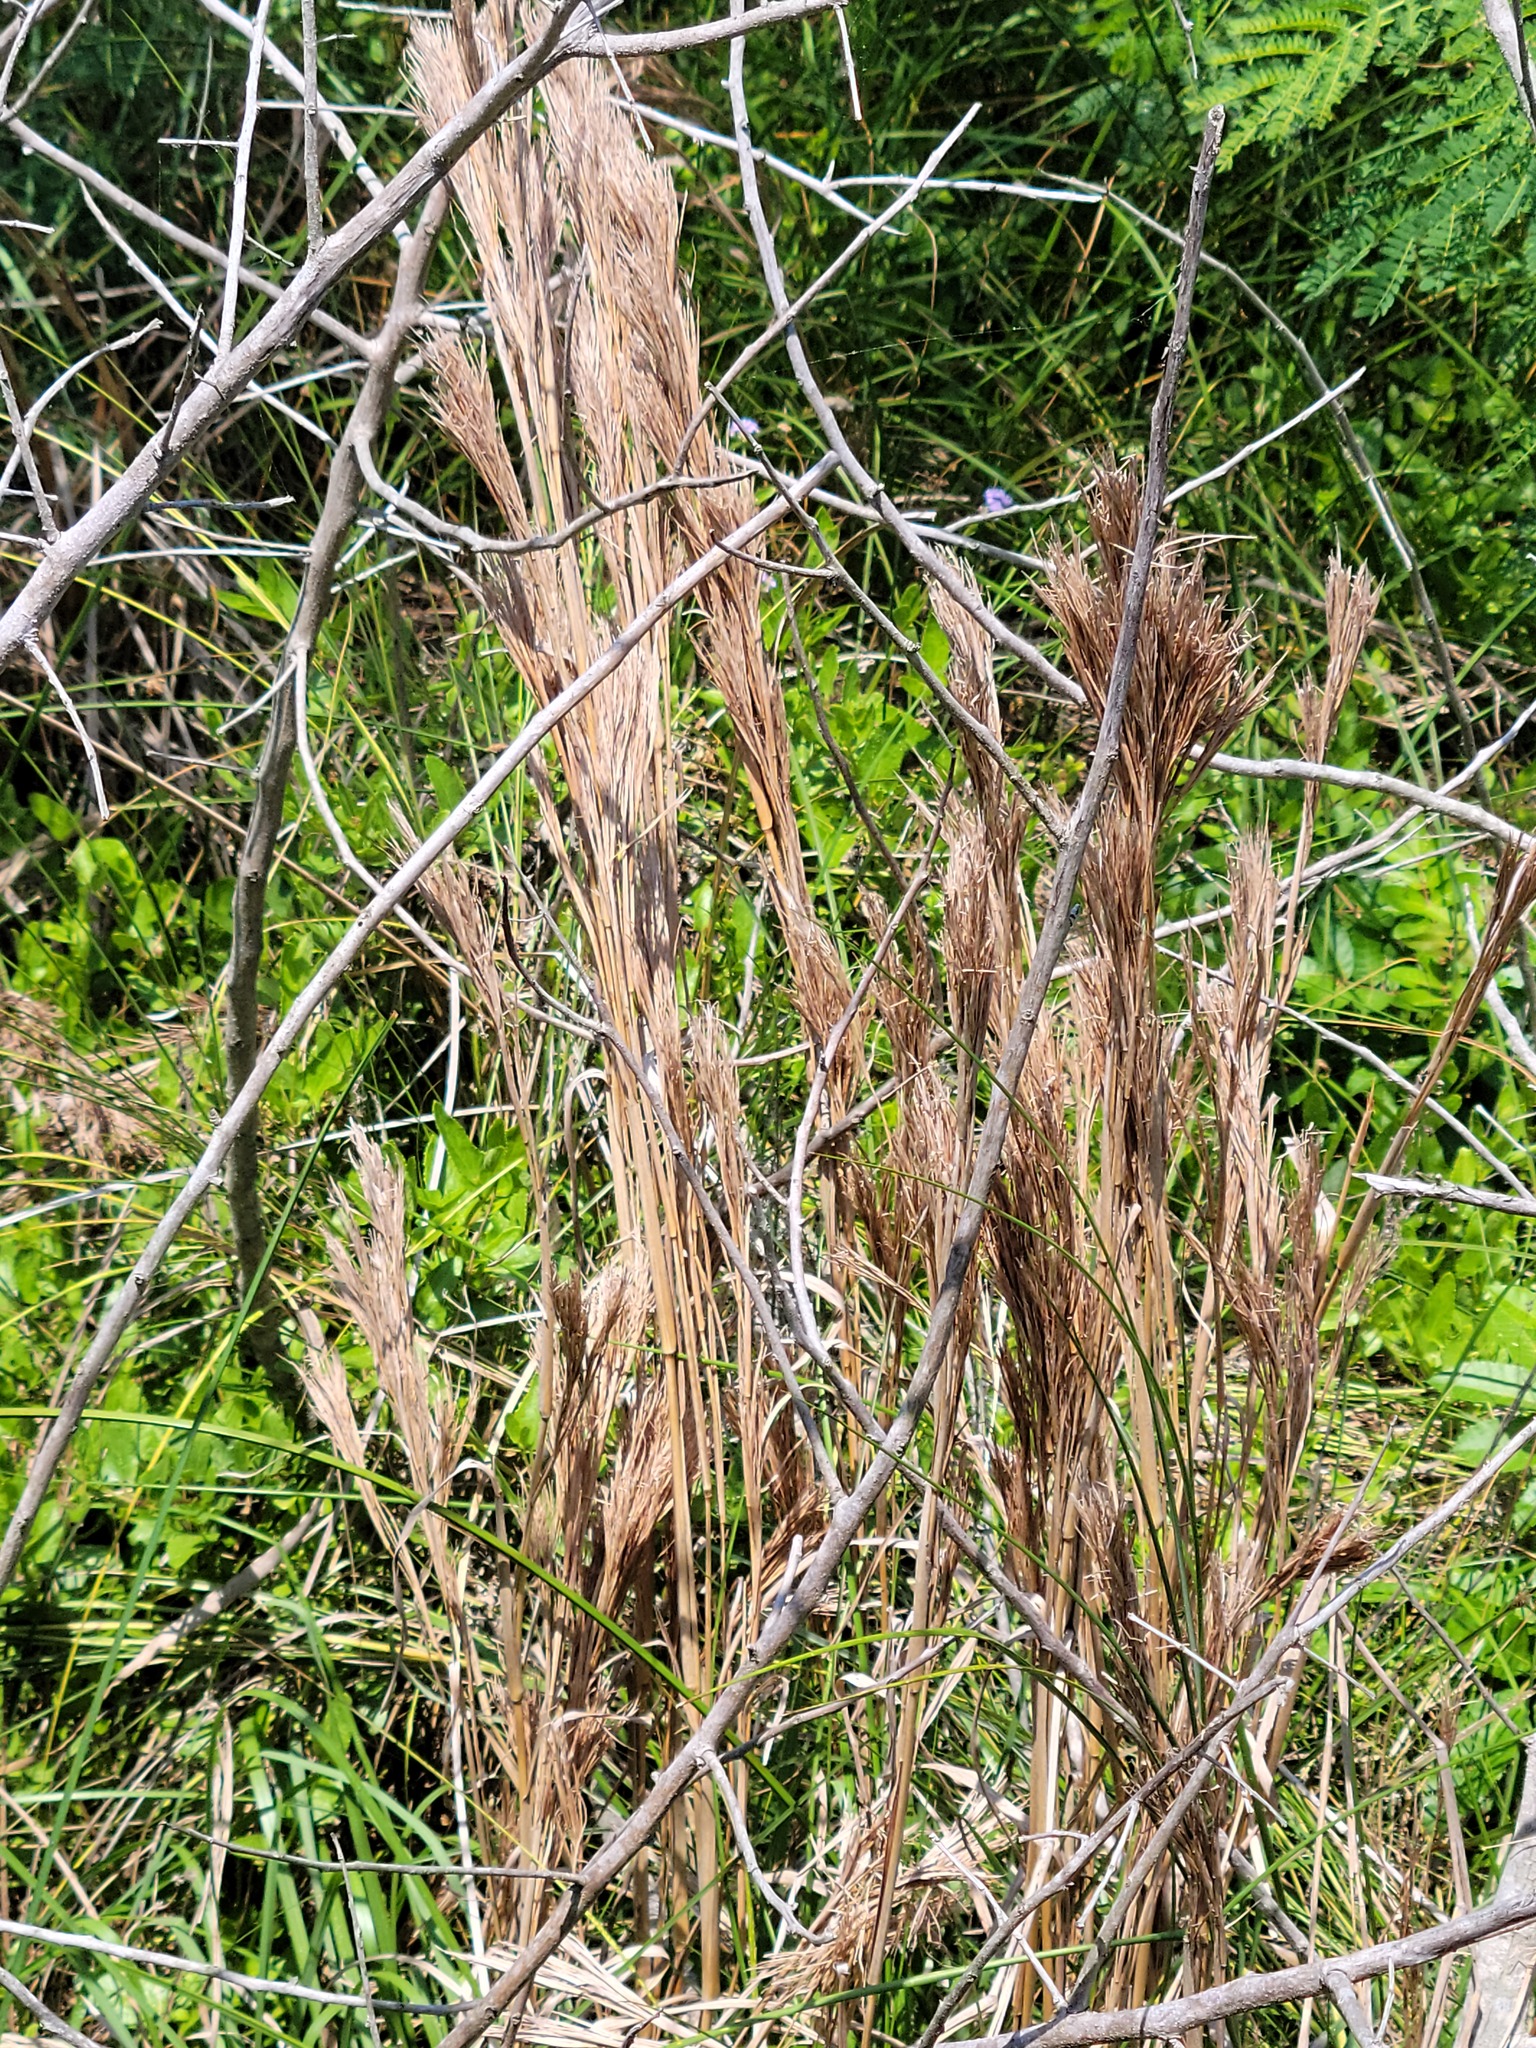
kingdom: Plantae
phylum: Tracheophyta
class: Liliopsida
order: Poales
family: Poaceae
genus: Andropogon
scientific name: Andropogon tenuispatheus
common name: Bushy bluestem
